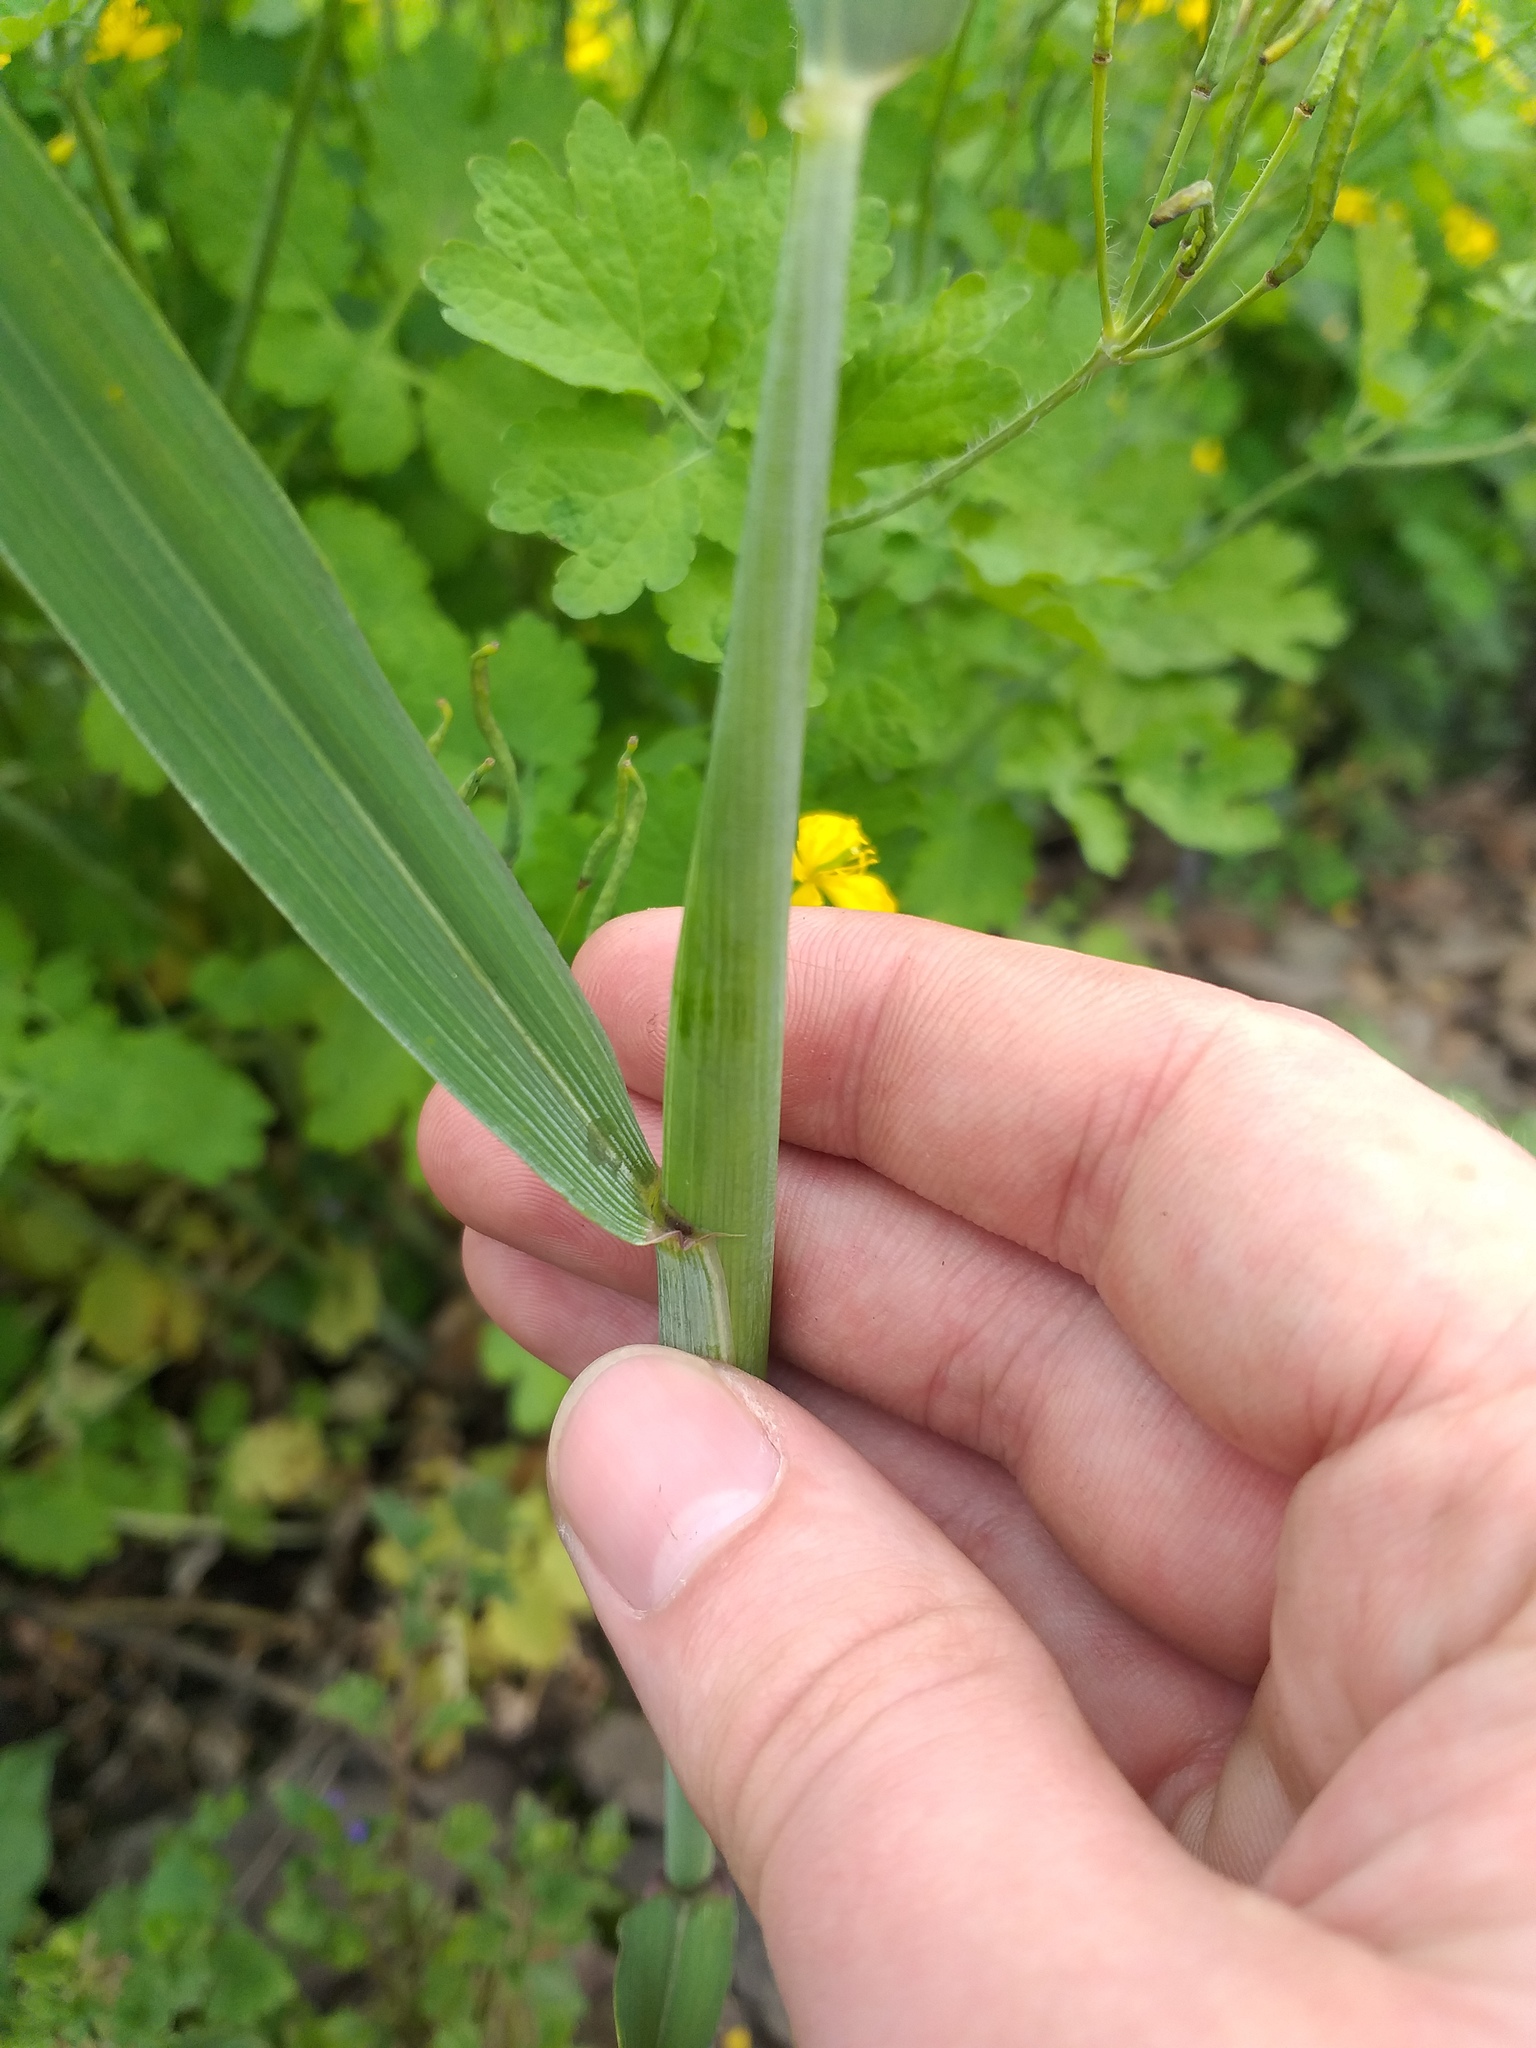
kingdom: Plantae
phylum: Tracheophyta
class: Liliopsida
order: Poales
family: Poaceae
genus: Triticum
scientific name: Triticum aestivum
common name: Common wheat
